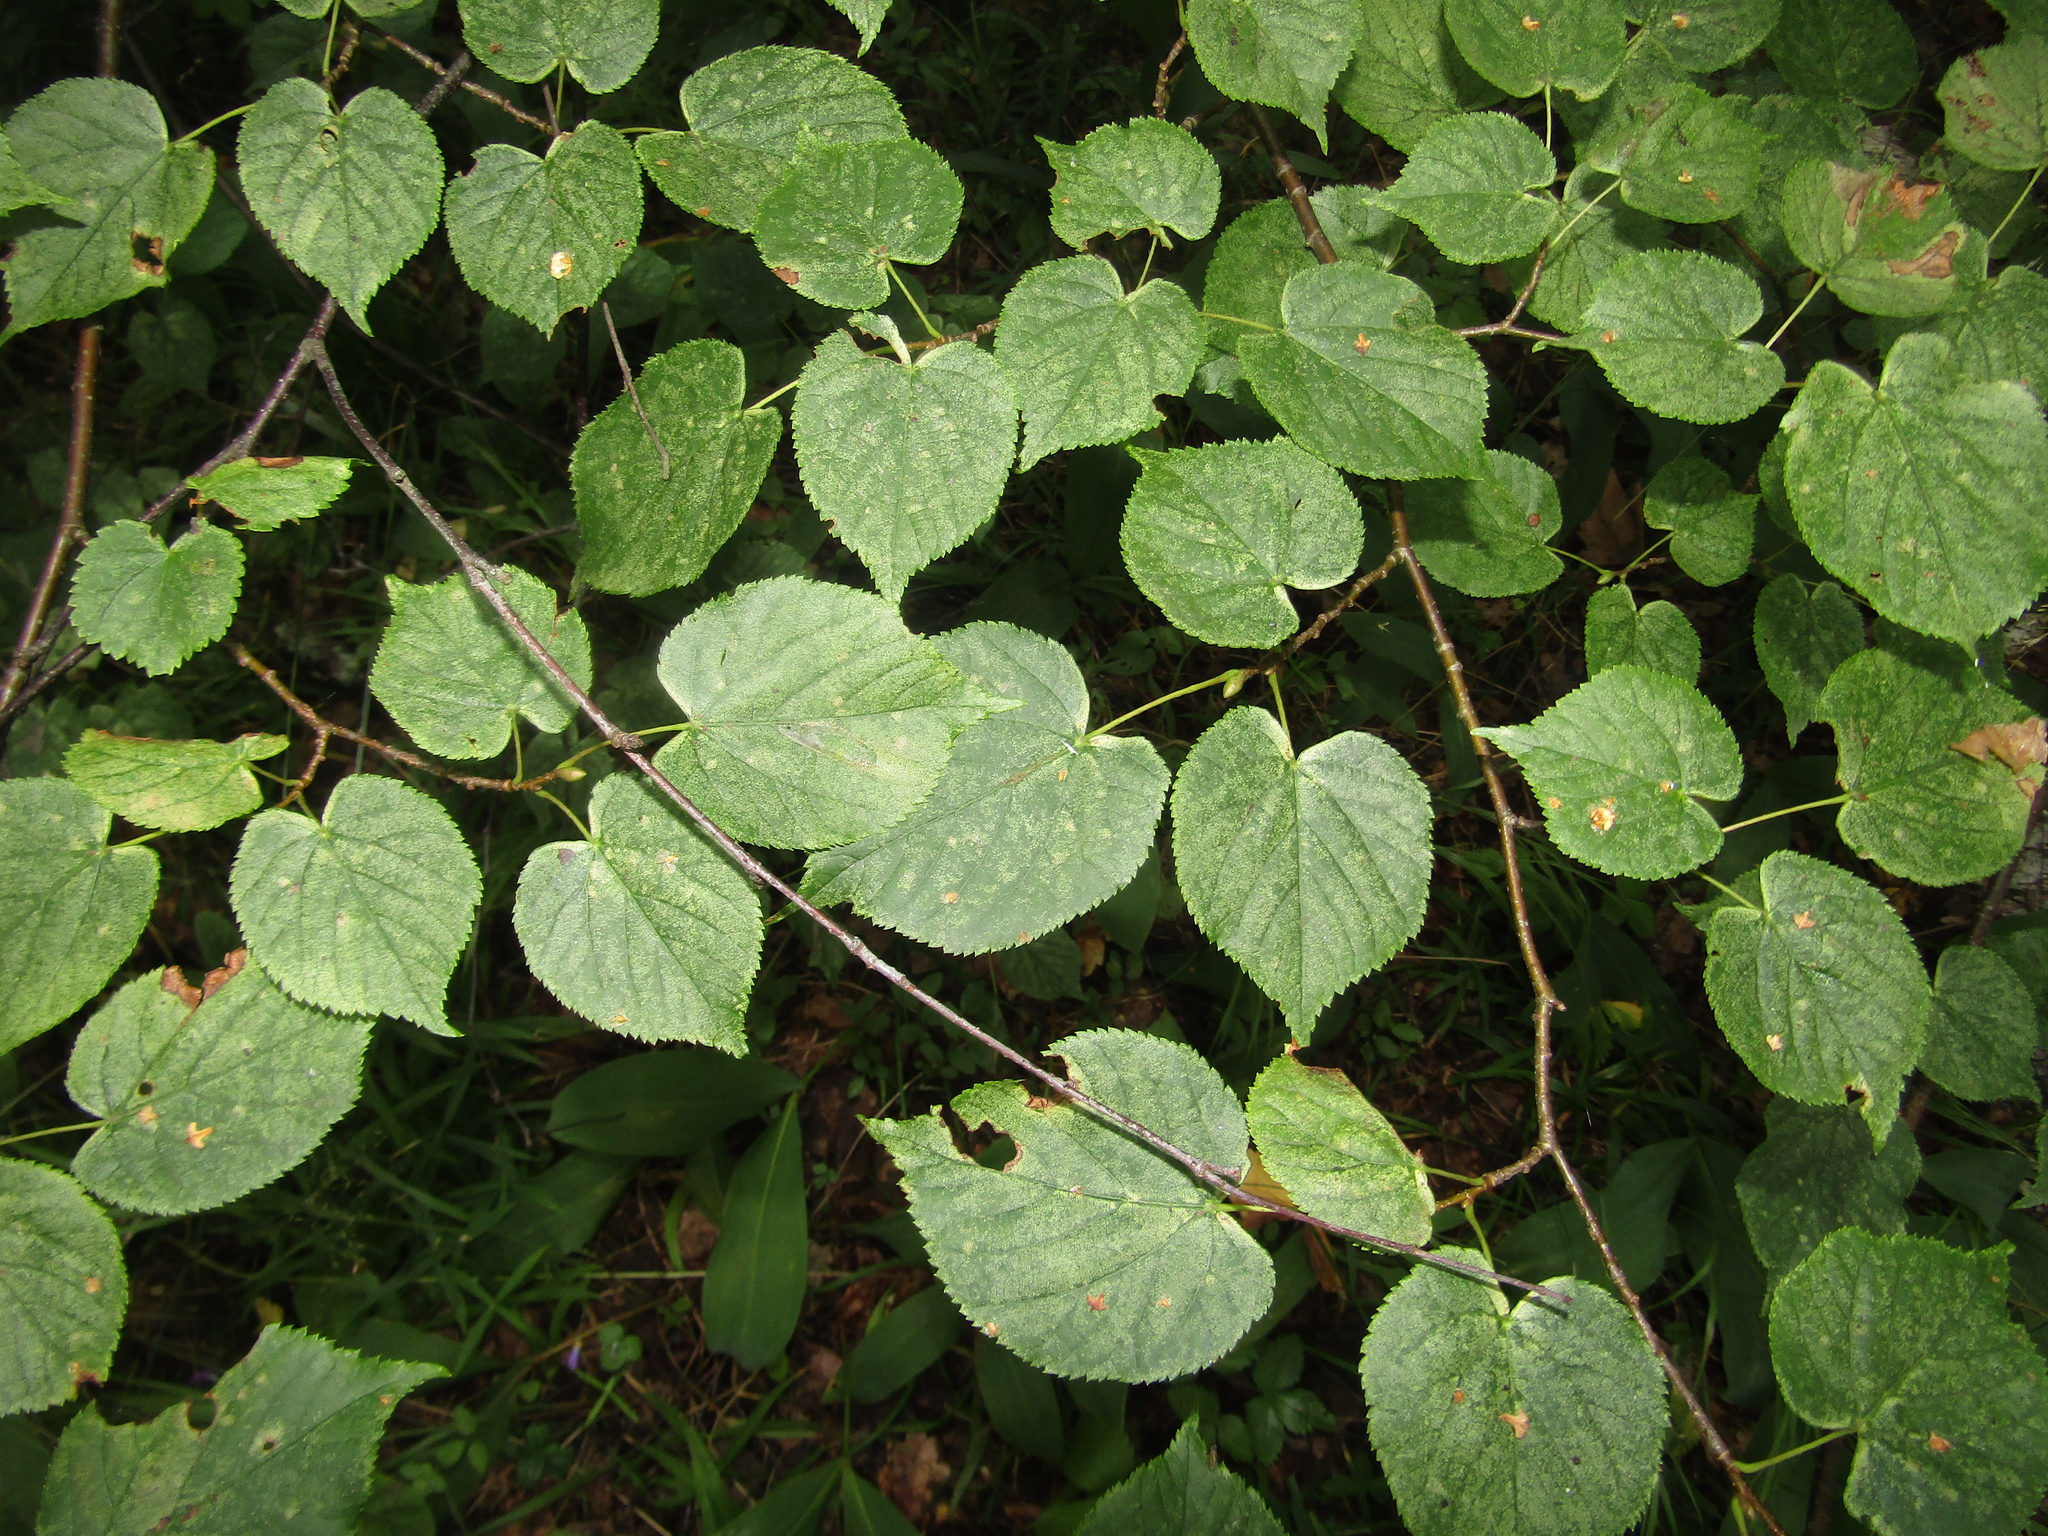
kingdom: Plantae
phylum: Tracheophyta
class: Magnoliopsida
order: Malvales
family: Malvaceae
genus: Tilia
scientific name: Tilia cordata
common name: Small-leaved lime
